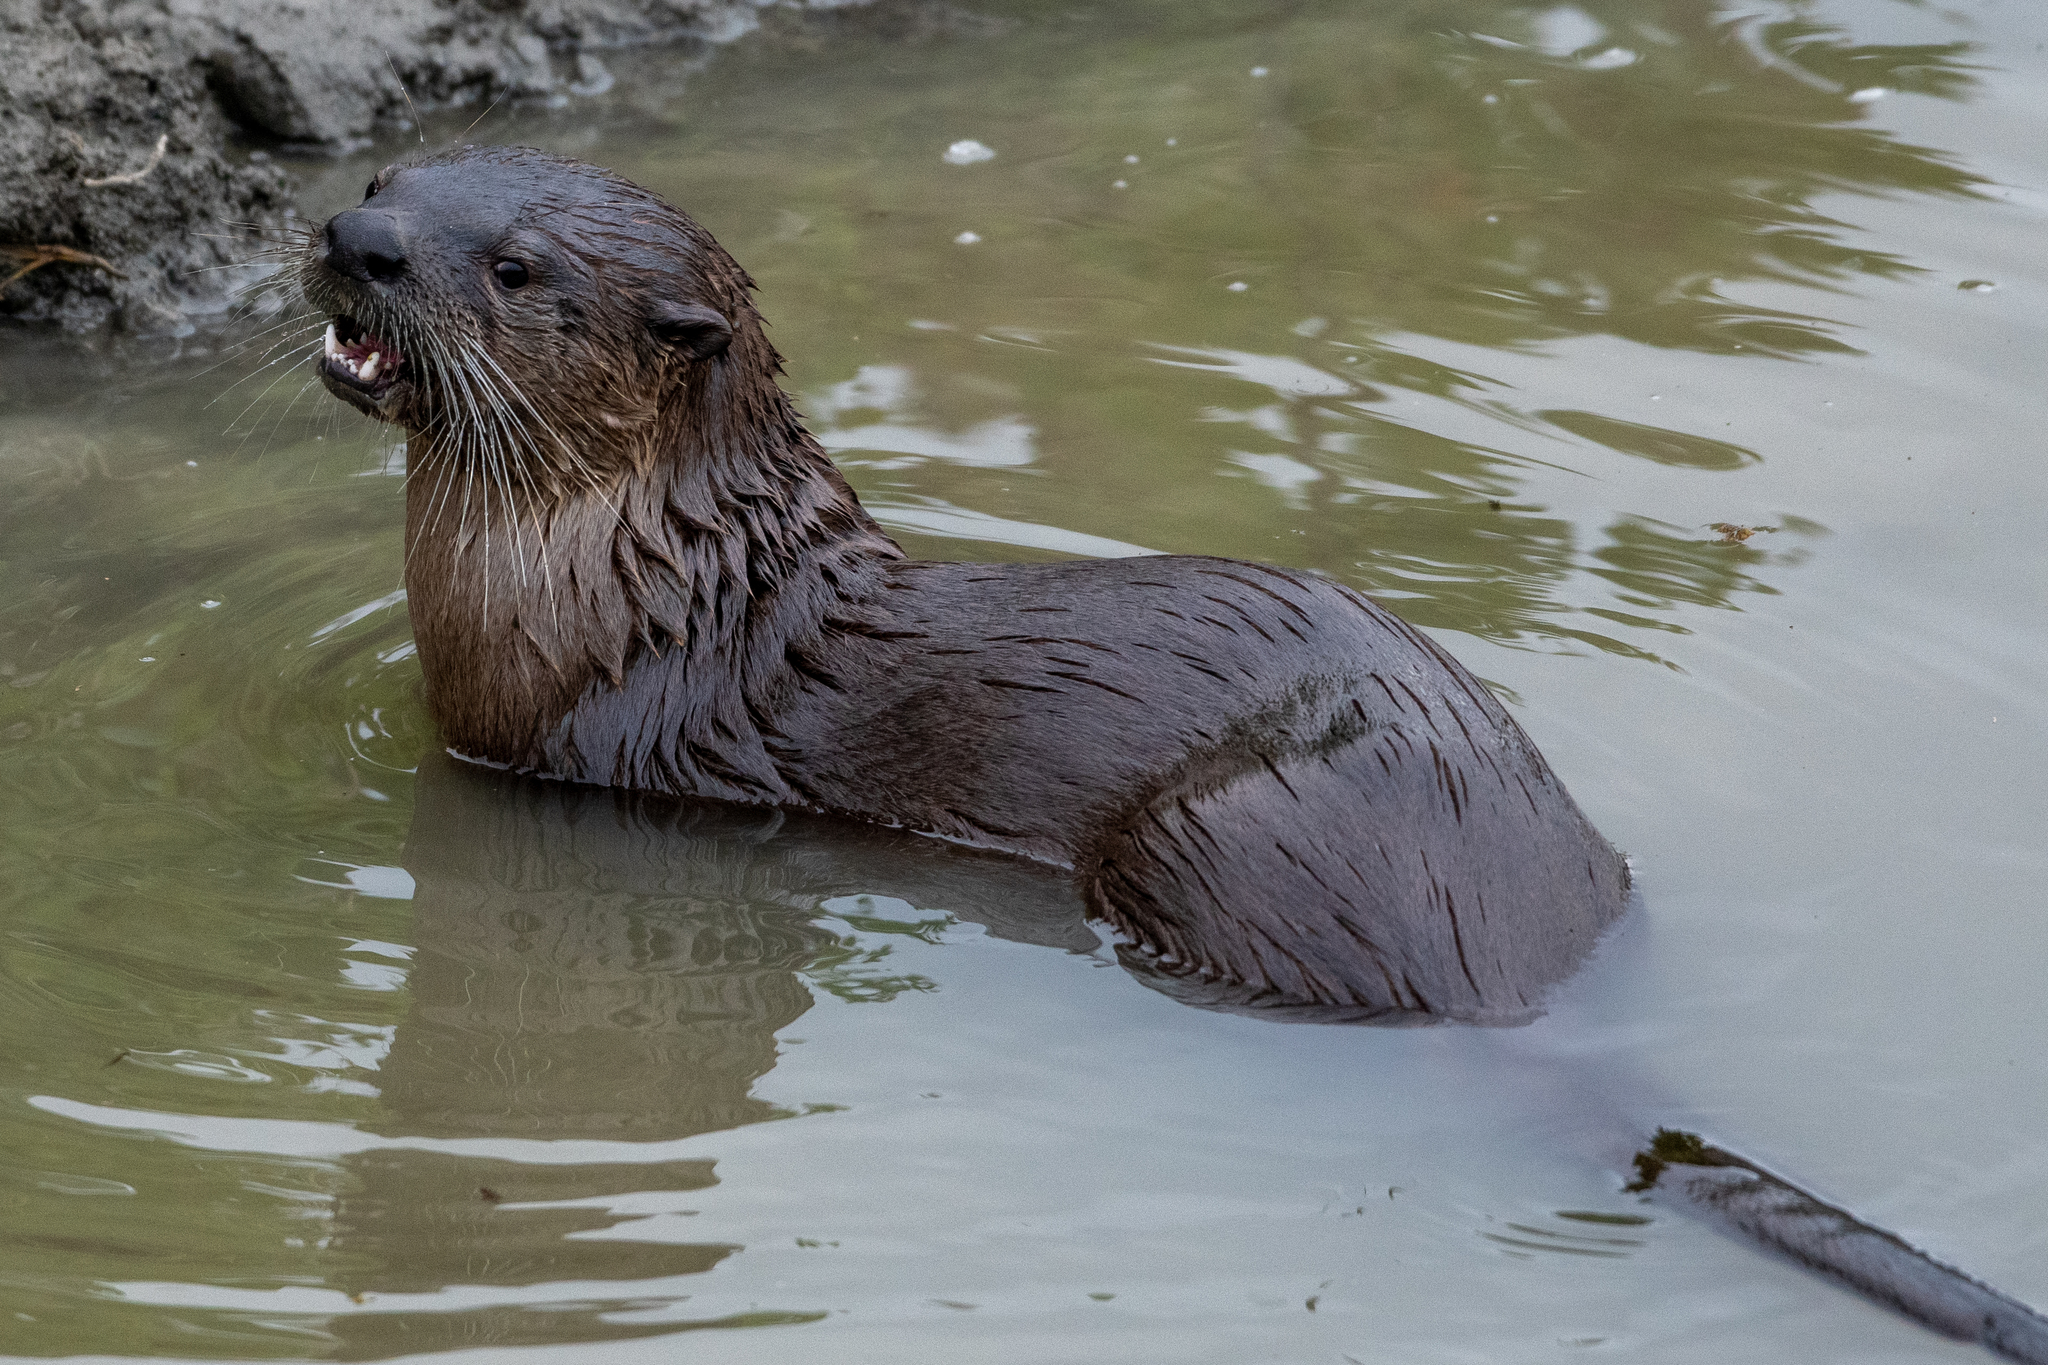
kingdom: Animalia
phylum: Chordata
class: Mammalia
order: Carnivora
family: Mustelidae
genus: Lontra
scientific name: Lontra canadensis
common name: North american river otter
